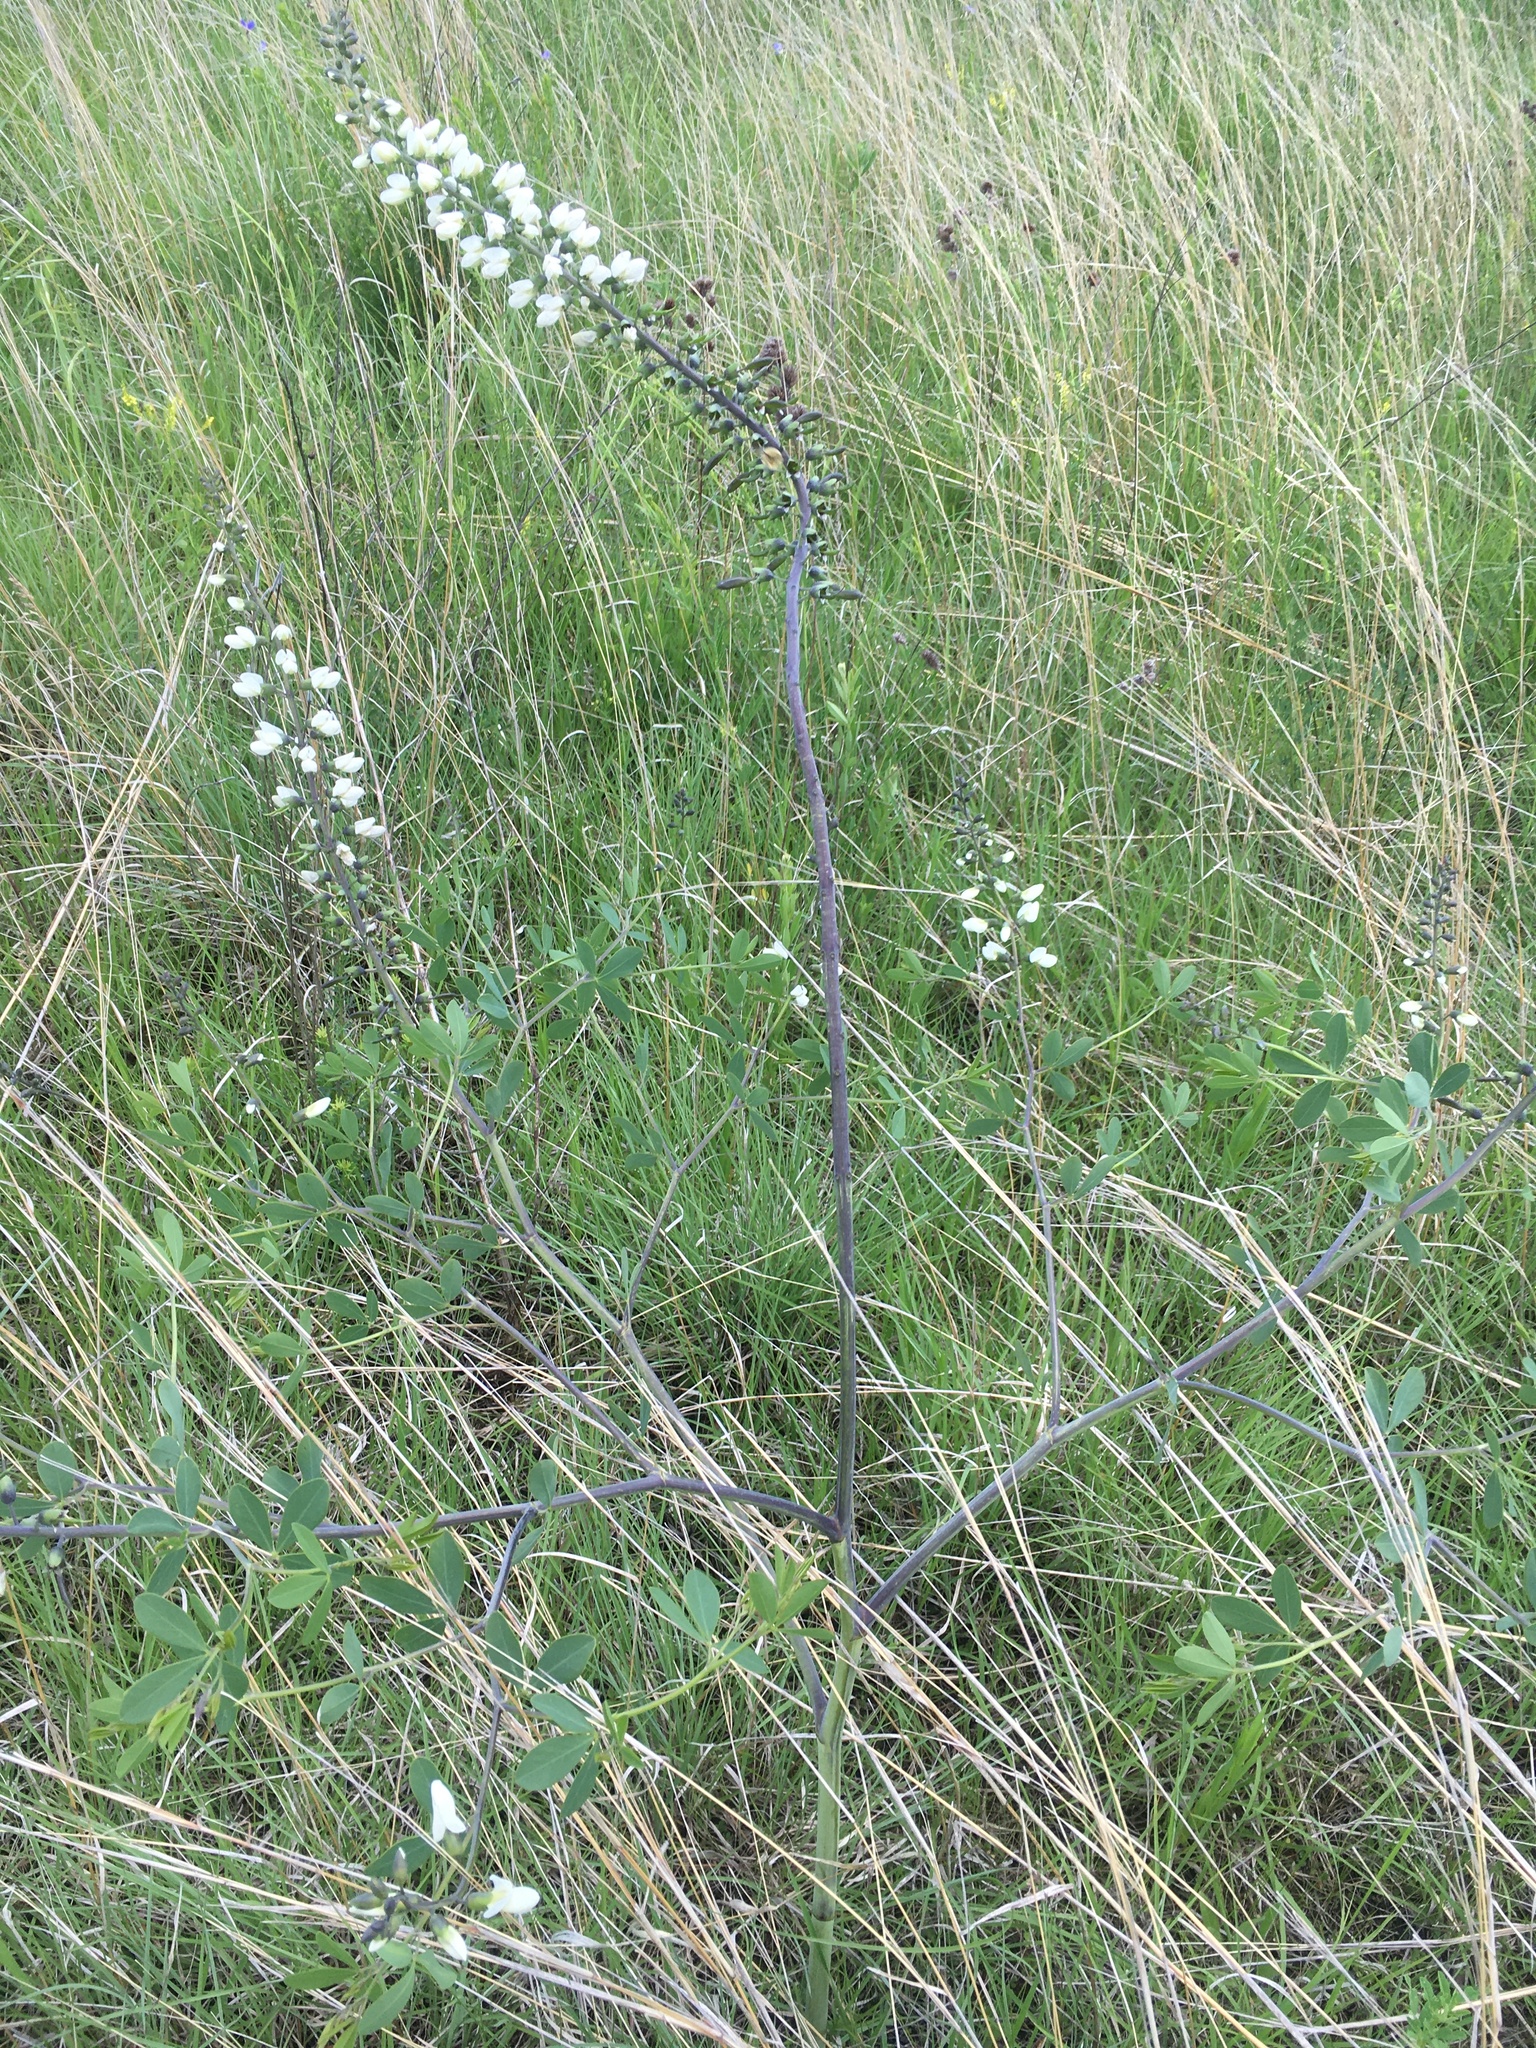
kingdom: Plantae
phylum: Tracheophyta
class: Magnoliopsida
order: Fabales
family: Fabaceae
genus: Baptisia
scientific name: Baptisia alba
